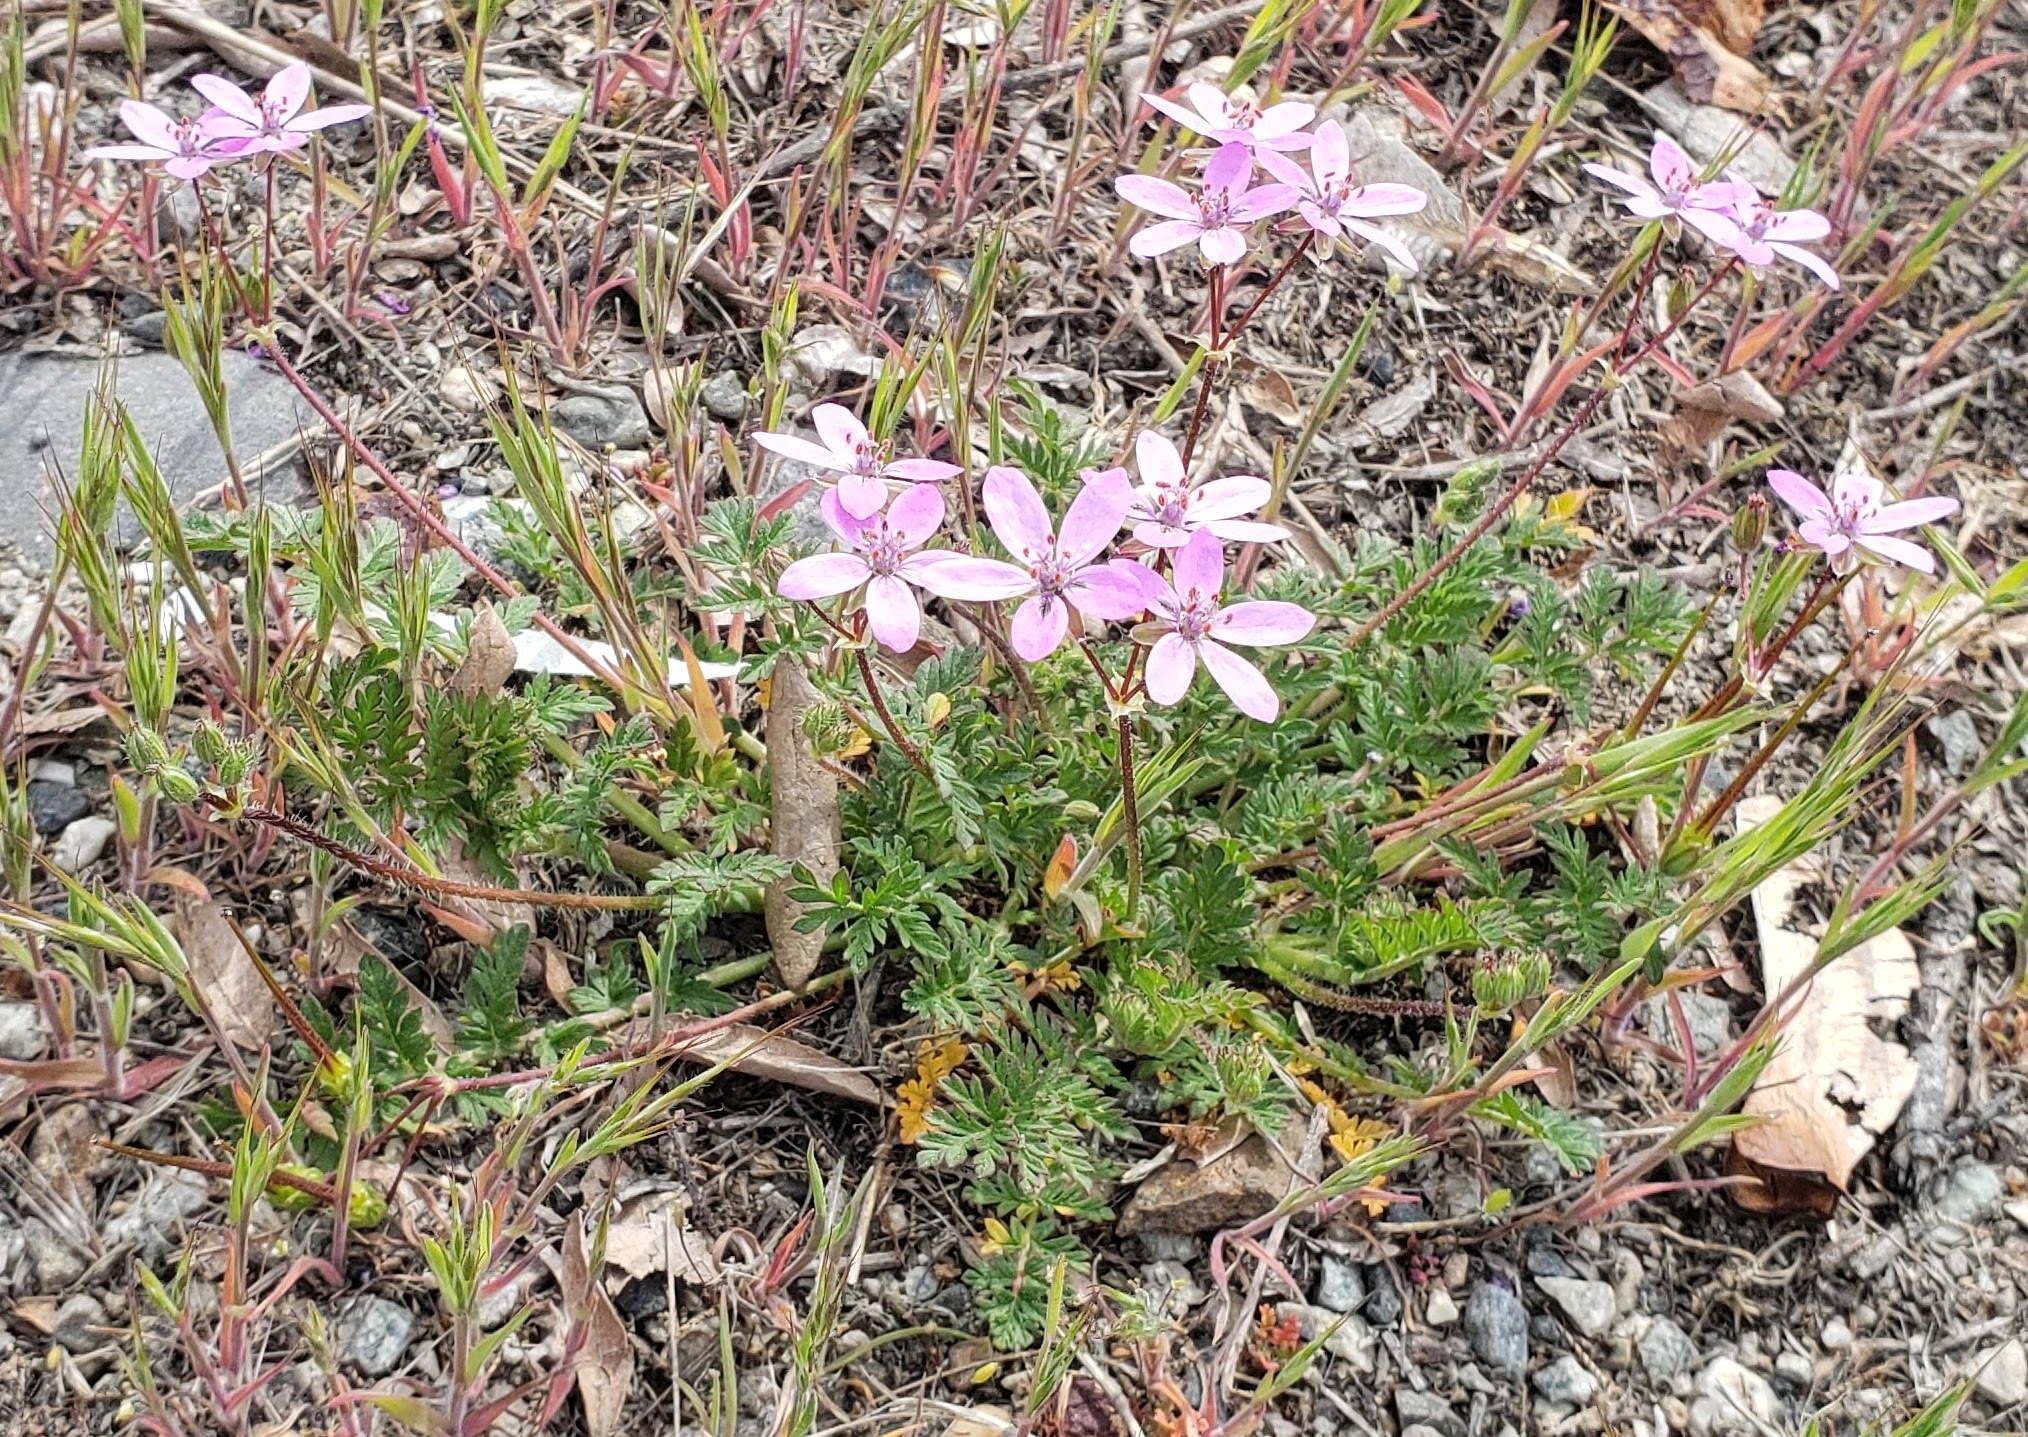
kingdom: Plantae
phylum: Tracheophyta
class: Magnoliopsida
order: Geraniales
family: Geraniaceae
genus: Erodium
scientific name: Erodium cicutarium
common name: Common stork's-bill
